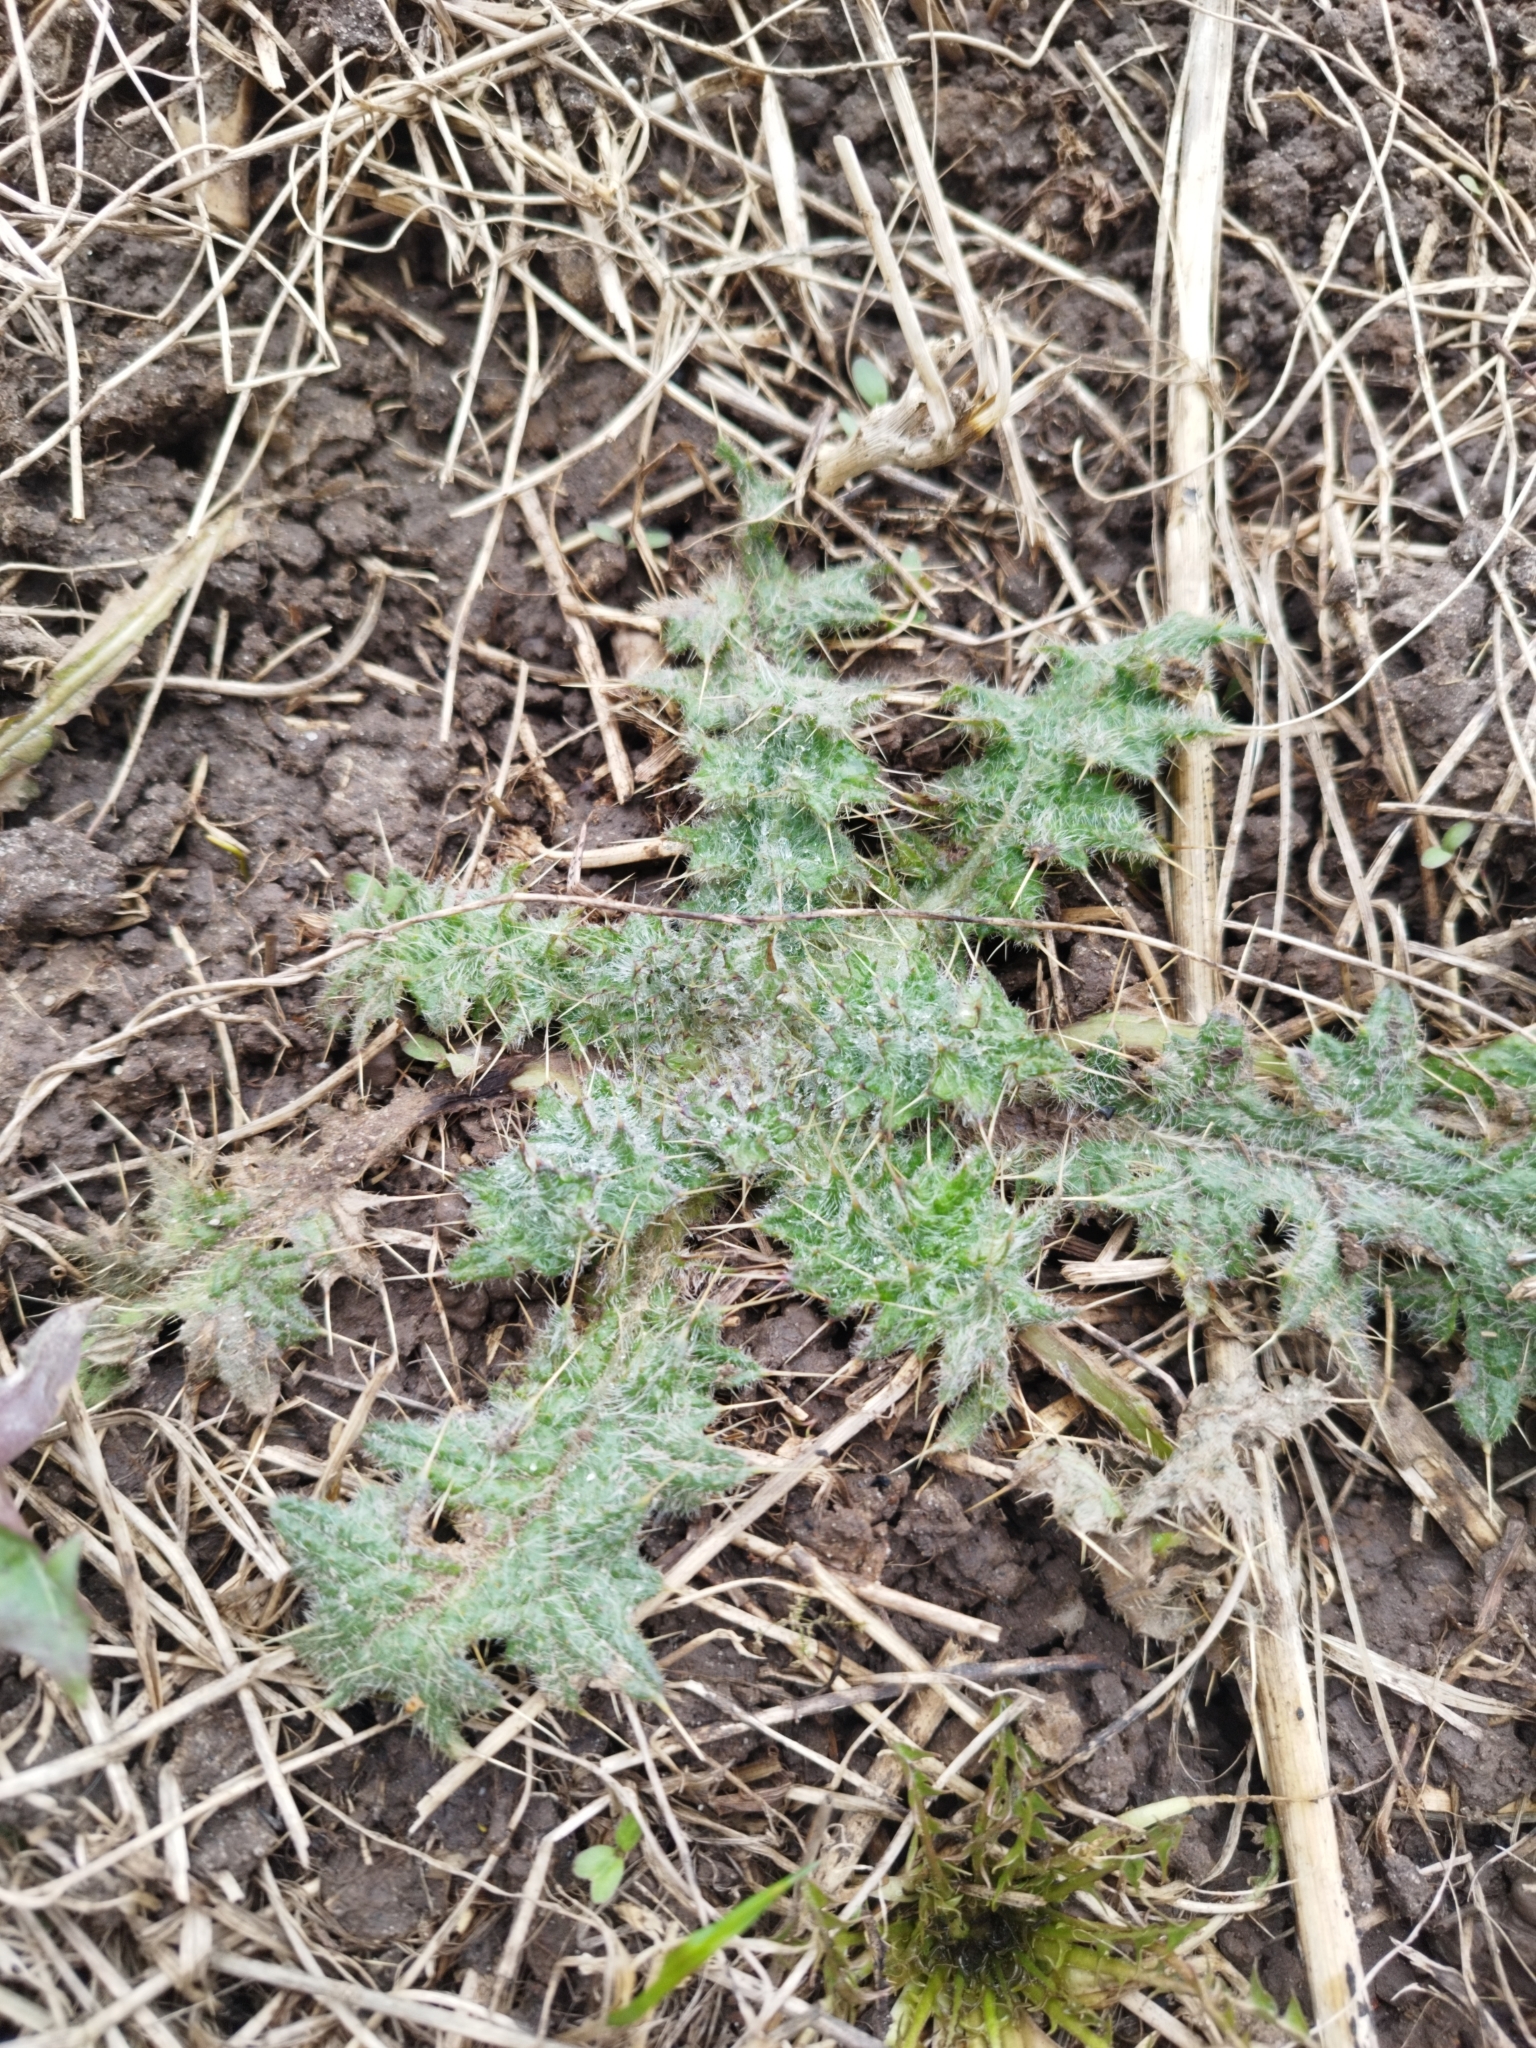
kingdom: Plantae
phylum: Tracheophyta
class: Magnoliopsida
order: Asterales
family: Asteraceae
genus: Cirsium
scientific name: Cirsium vulgare
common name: Bull thistle
